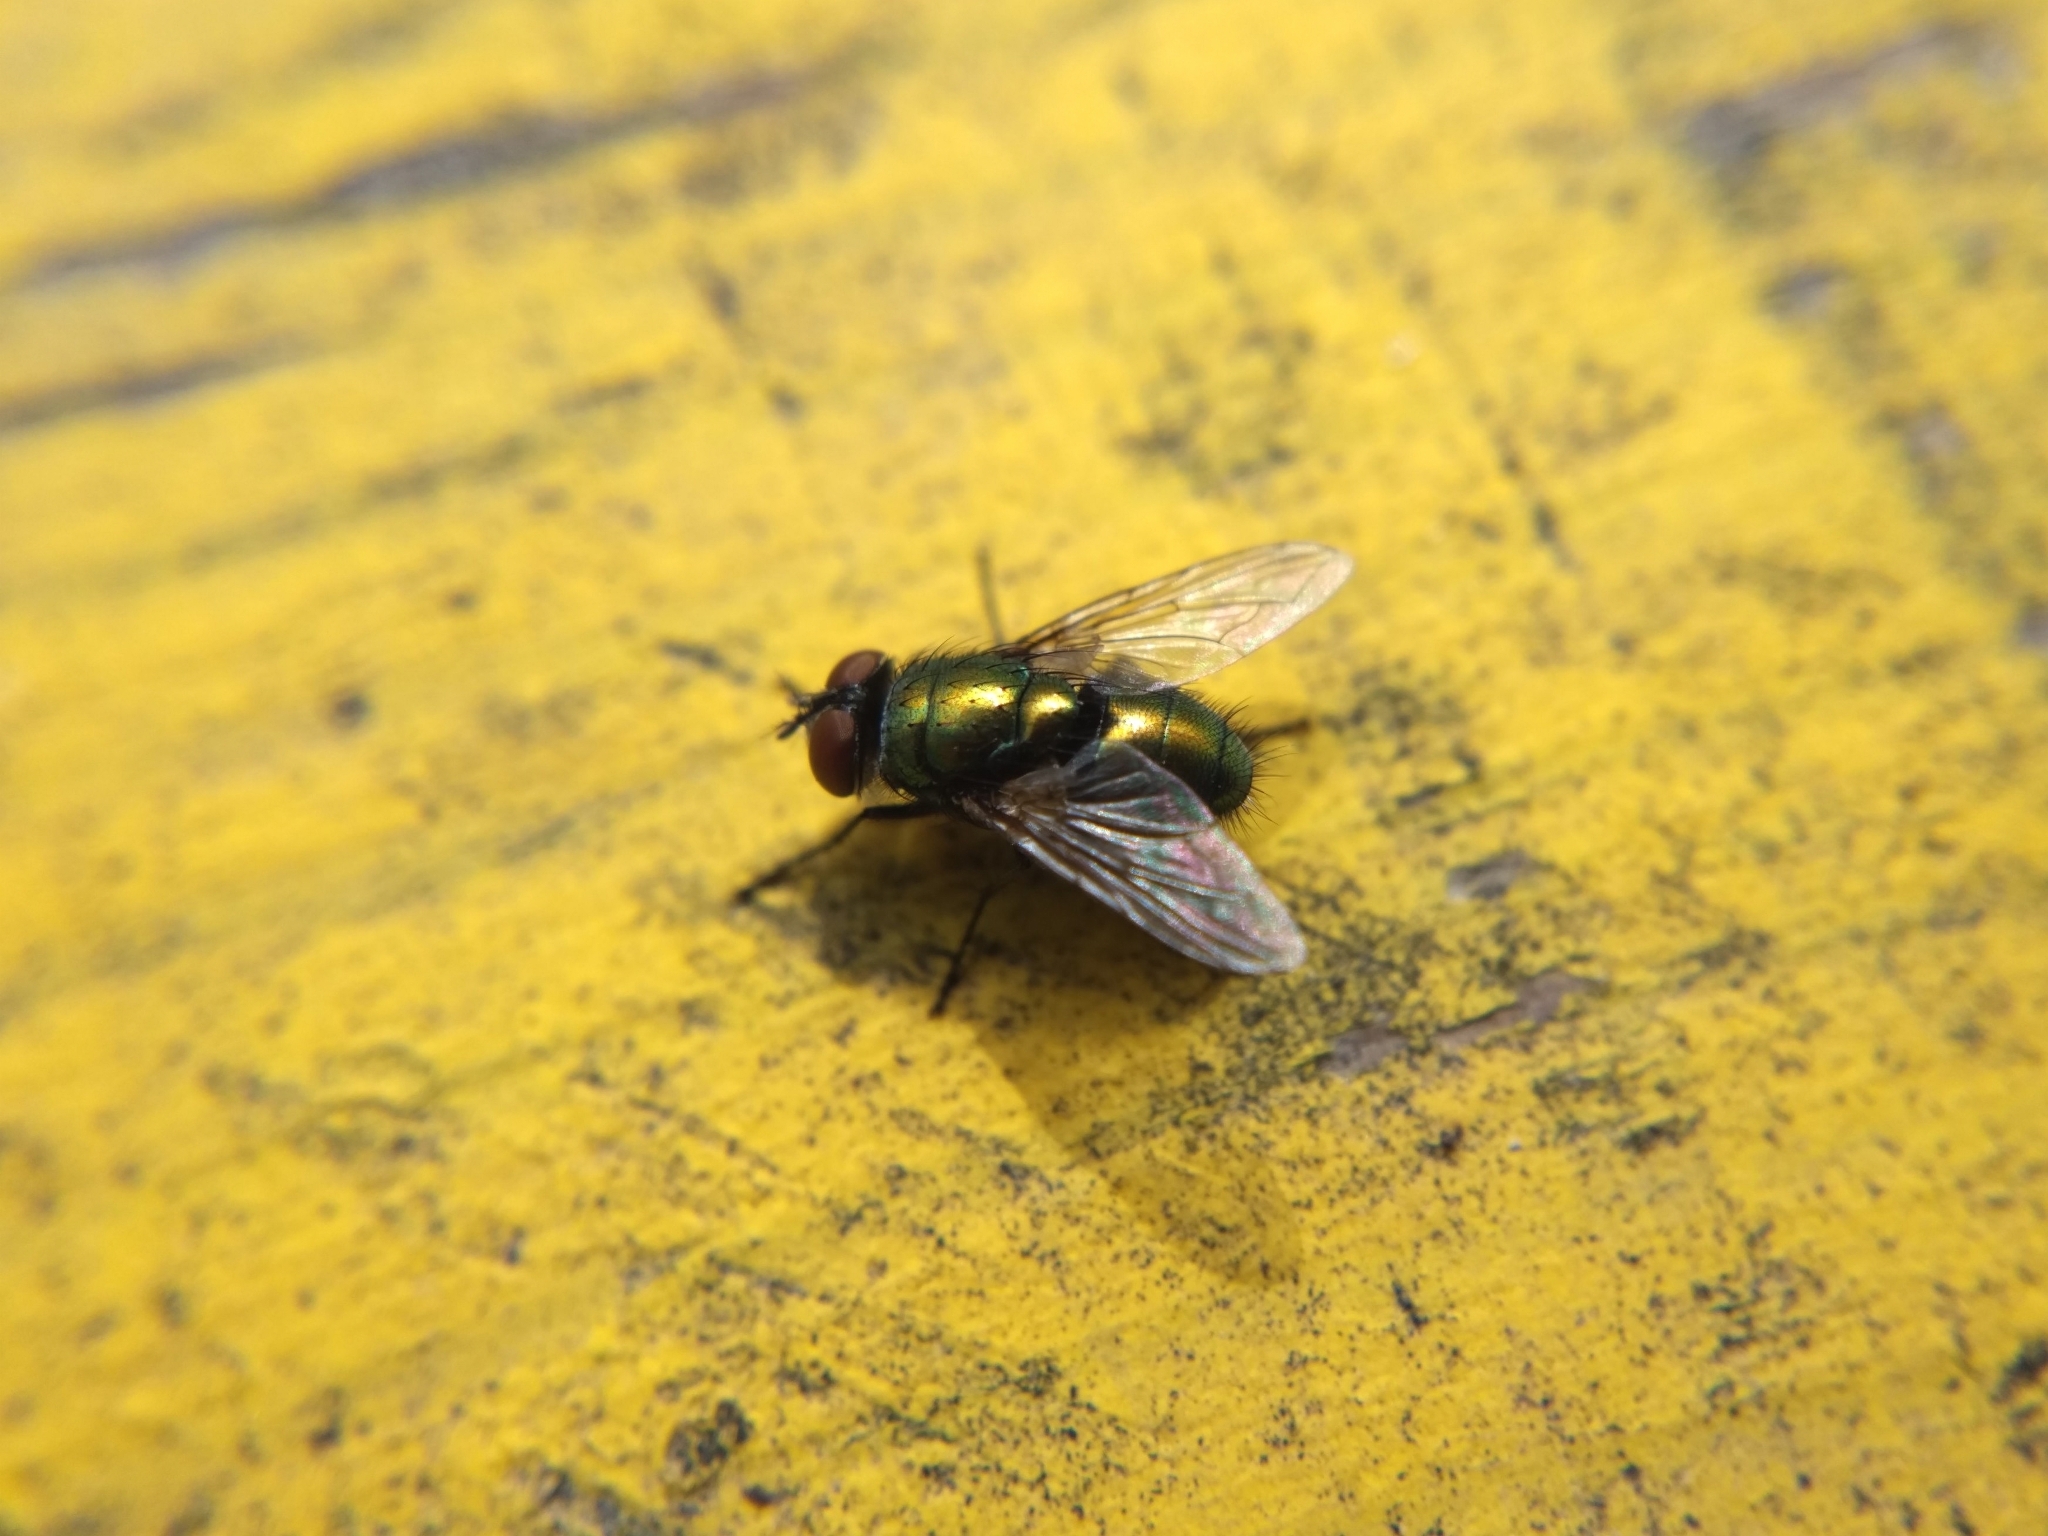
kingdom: Animalia
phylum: Arthropoda
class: Insecta
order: Diptera
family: Calliphoridae
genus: Lucilia
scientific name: Lucilia sericata
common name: Blow fly
